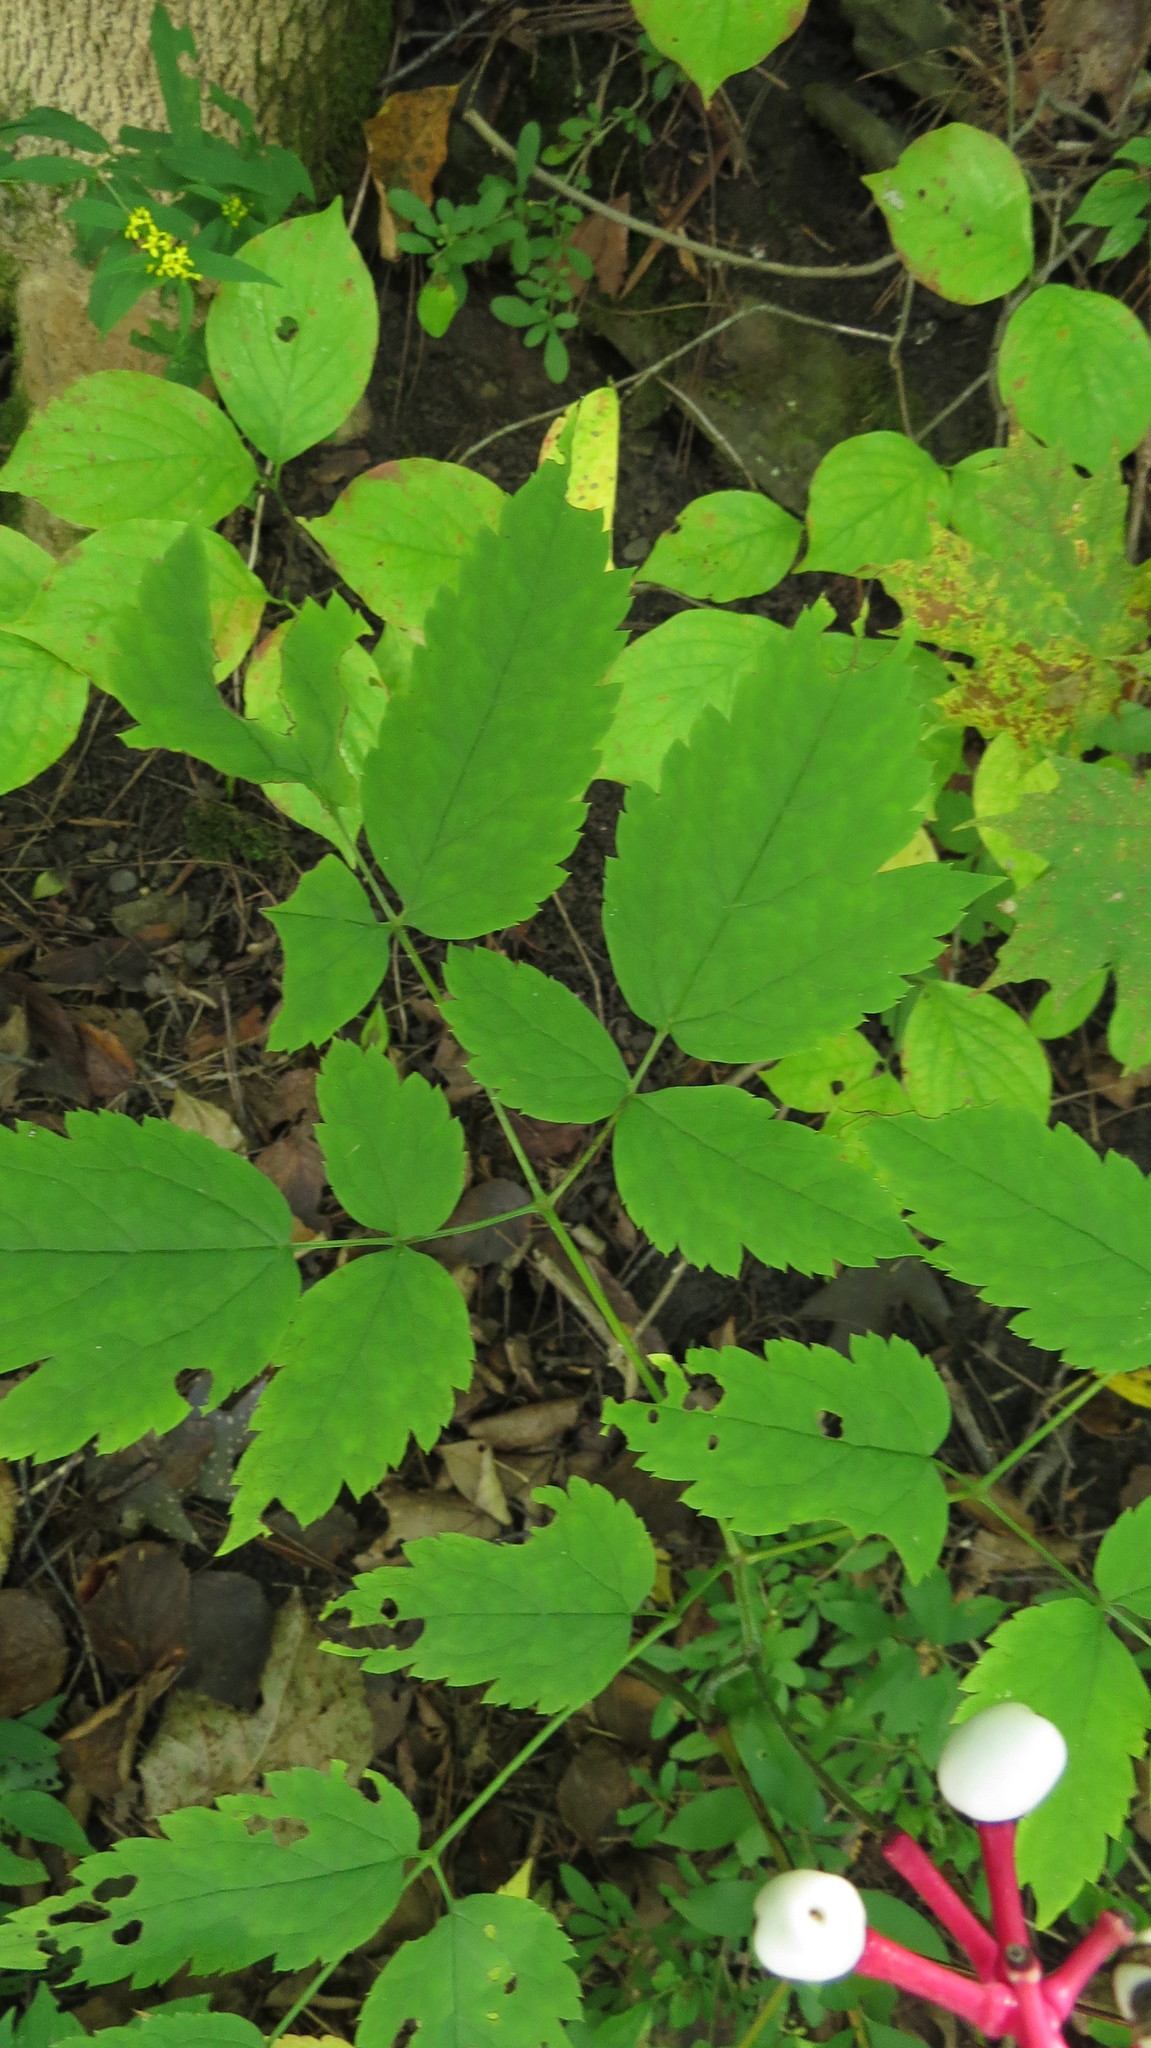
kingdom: Plantae
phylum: Tracheophyta
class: Magnoliopsida
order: Ranunculales
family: Ranunculaceae
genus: Actaea
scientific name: Actaea pachypoda
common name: Doll's-eyes
